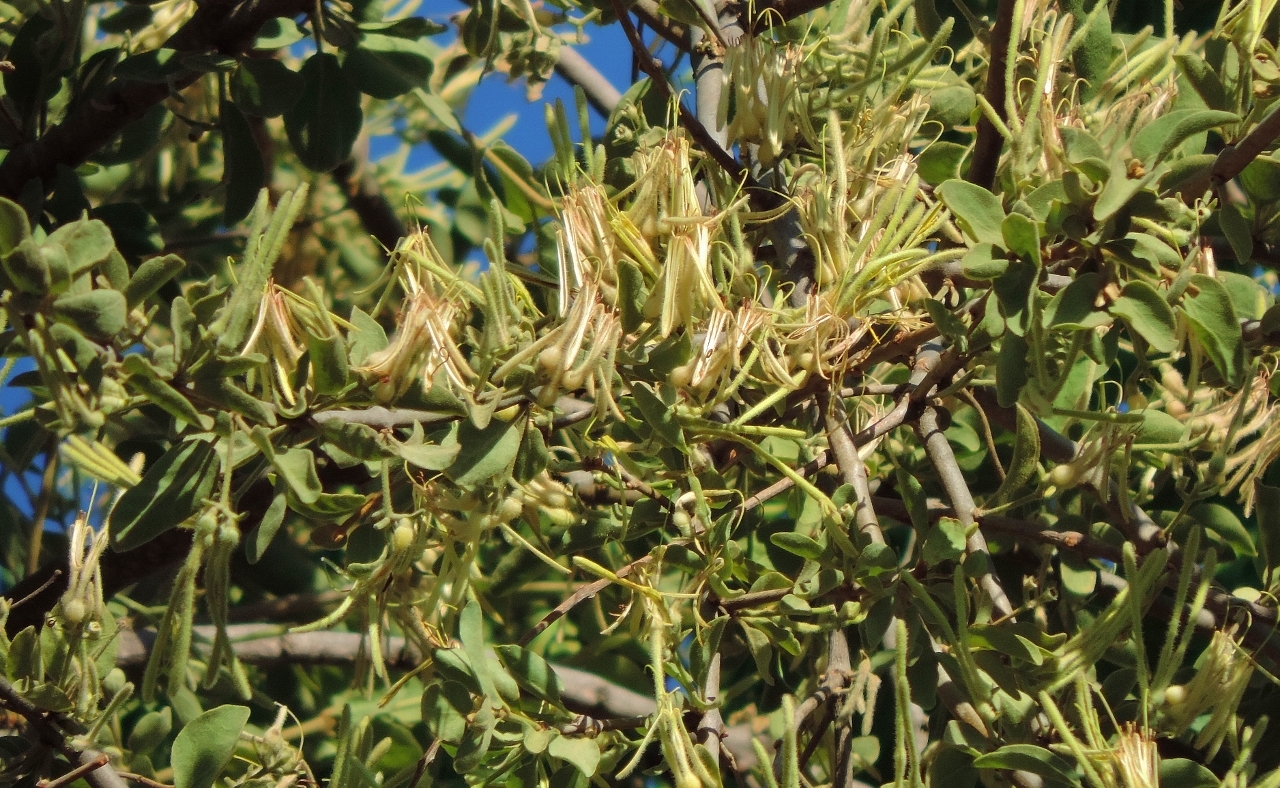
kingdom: Plantae
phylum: Tracheophyta
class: Magnoliopsida
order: Santalales
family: Loranthaceae
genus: Erianthemum
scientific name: Erianthemum virescens
